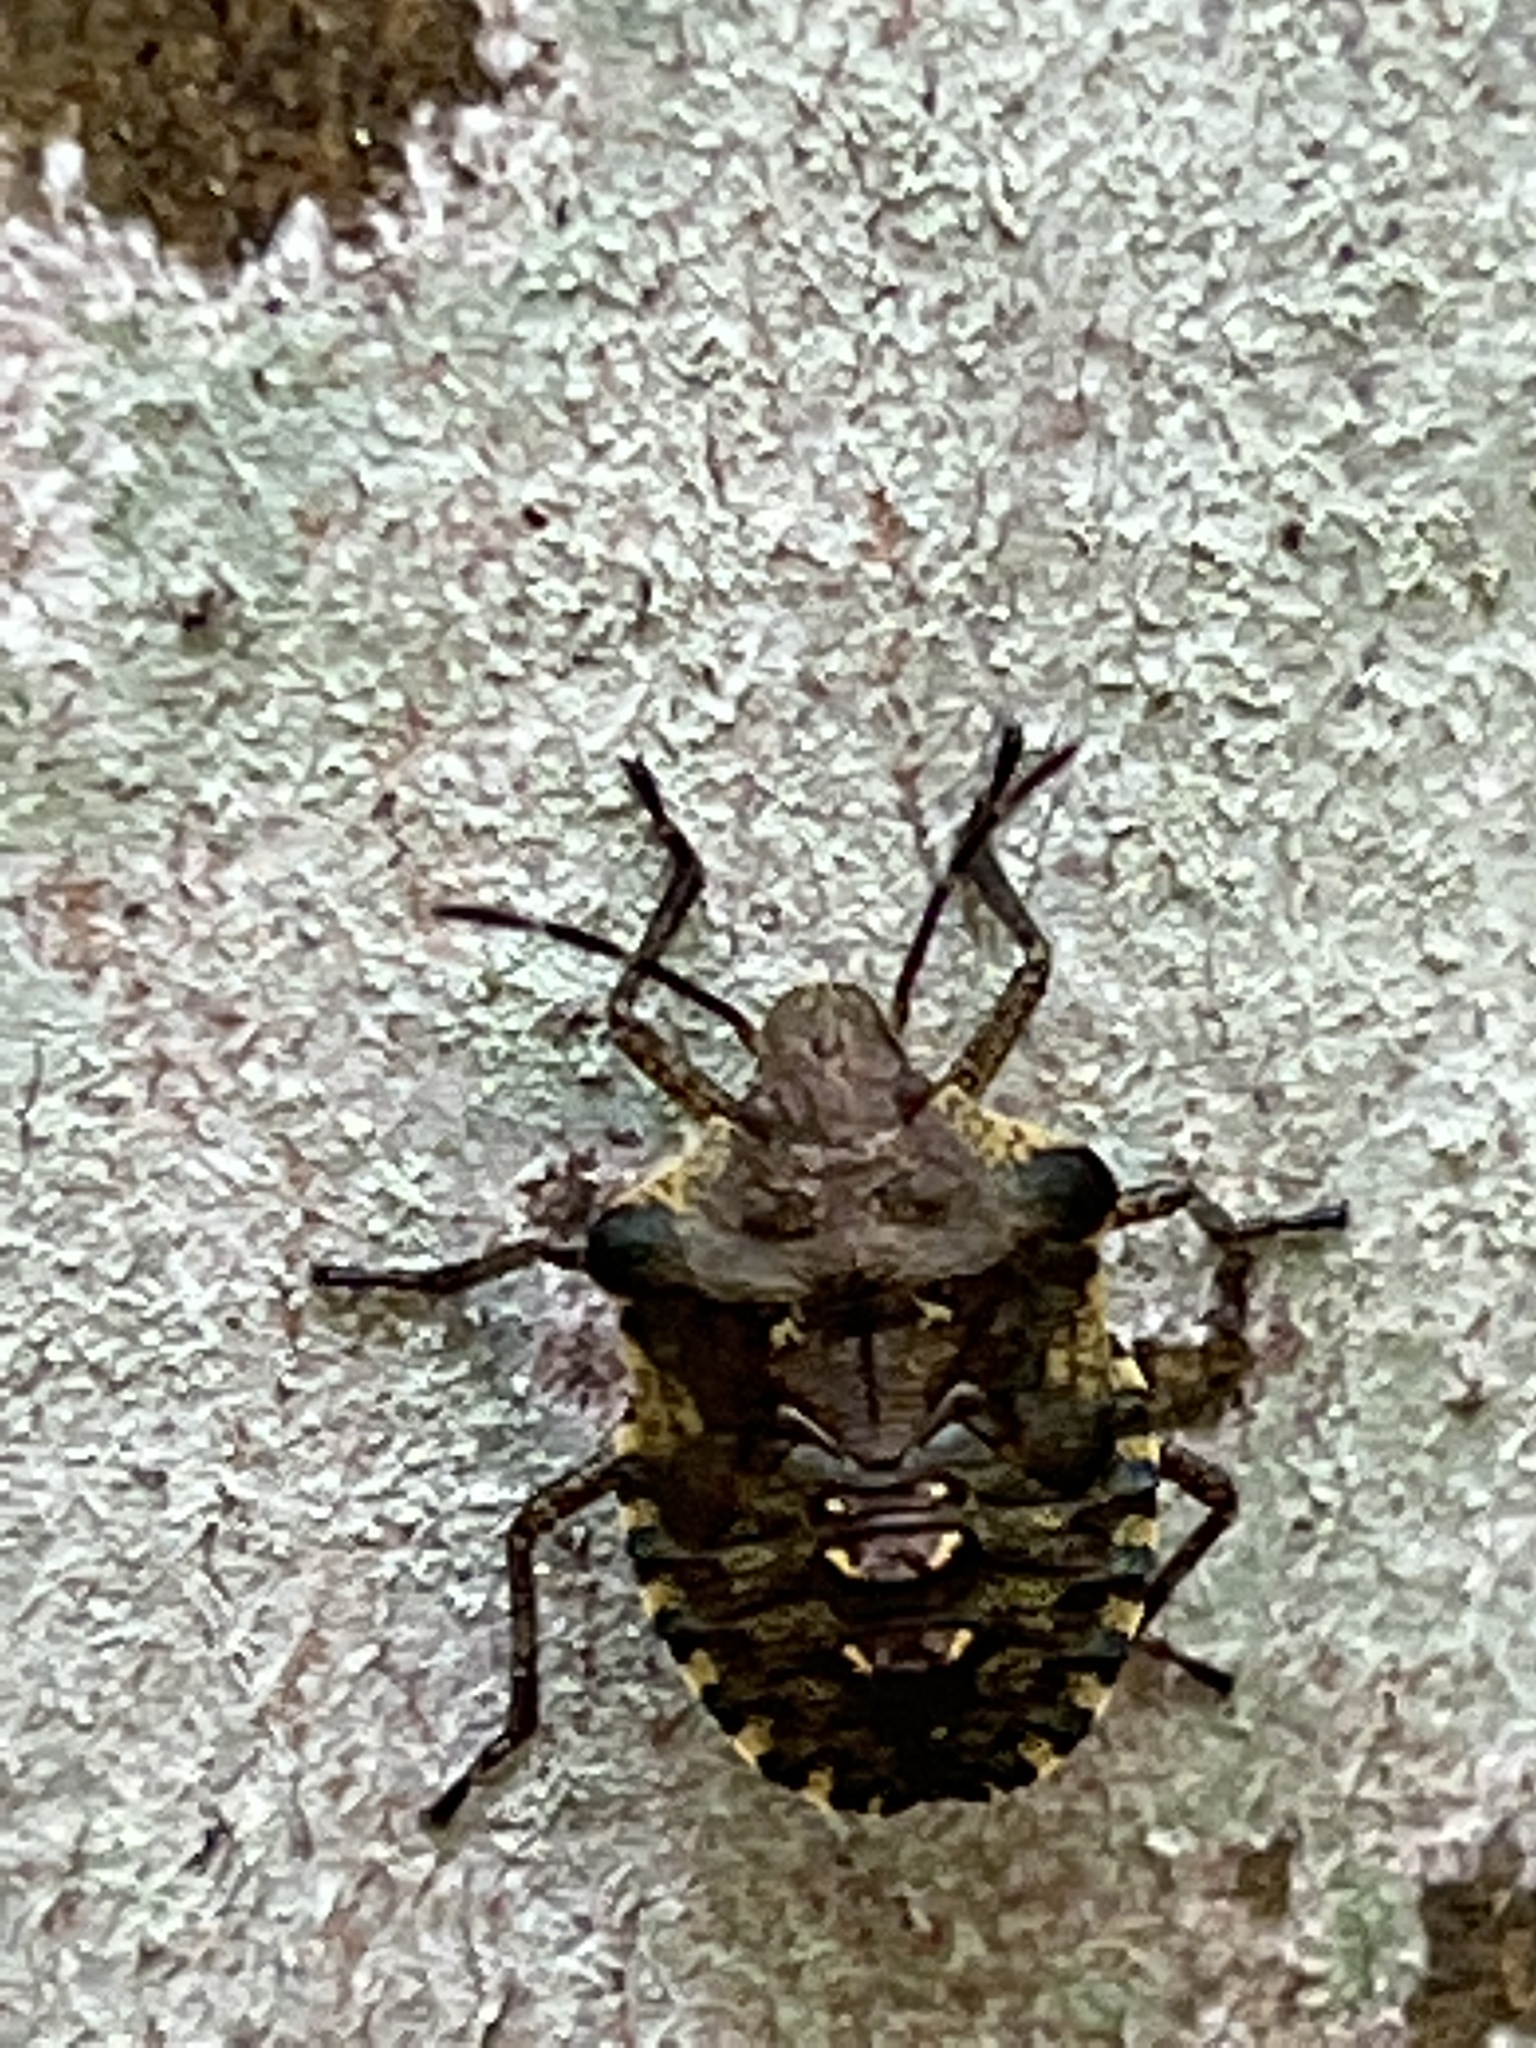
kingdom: Animalia
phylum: Arthropoda
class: Insecta
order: Hemiptera
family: Pentatomidae
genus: Pentatoma
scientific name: Pentatoma rufipes
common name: Forest bug
